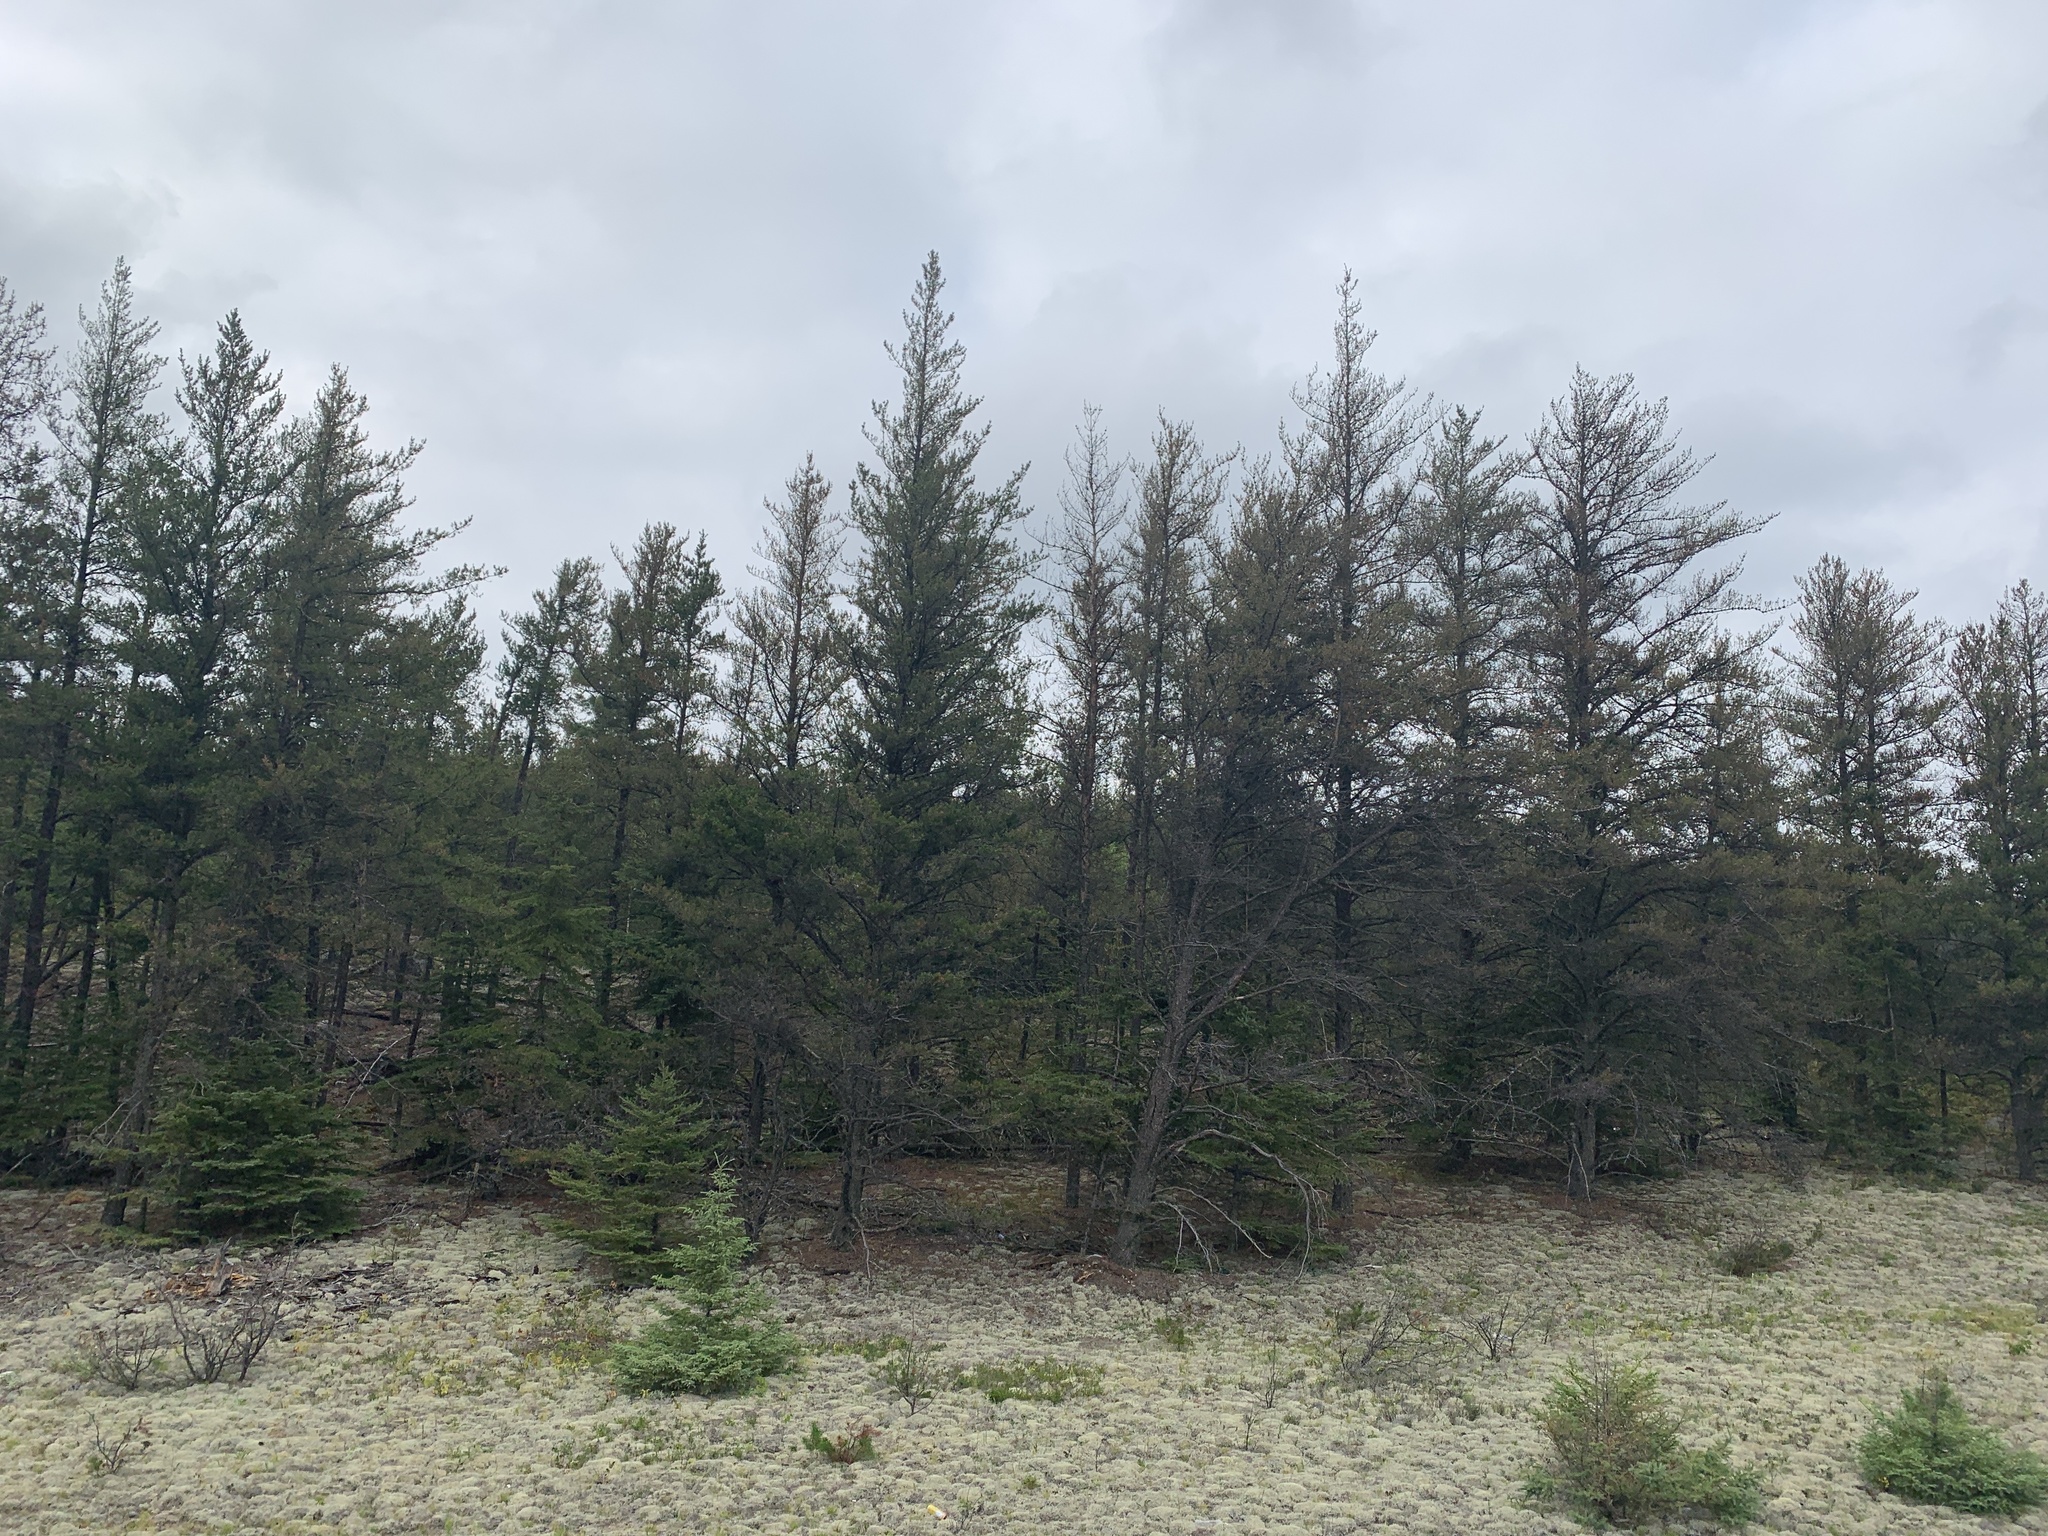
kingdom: Plantae
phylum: Tracheophyta
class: Pinopsida
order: Pinales
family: Pinaceae
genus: Pinus
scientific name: Pinus banksiana
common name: Jack pine
